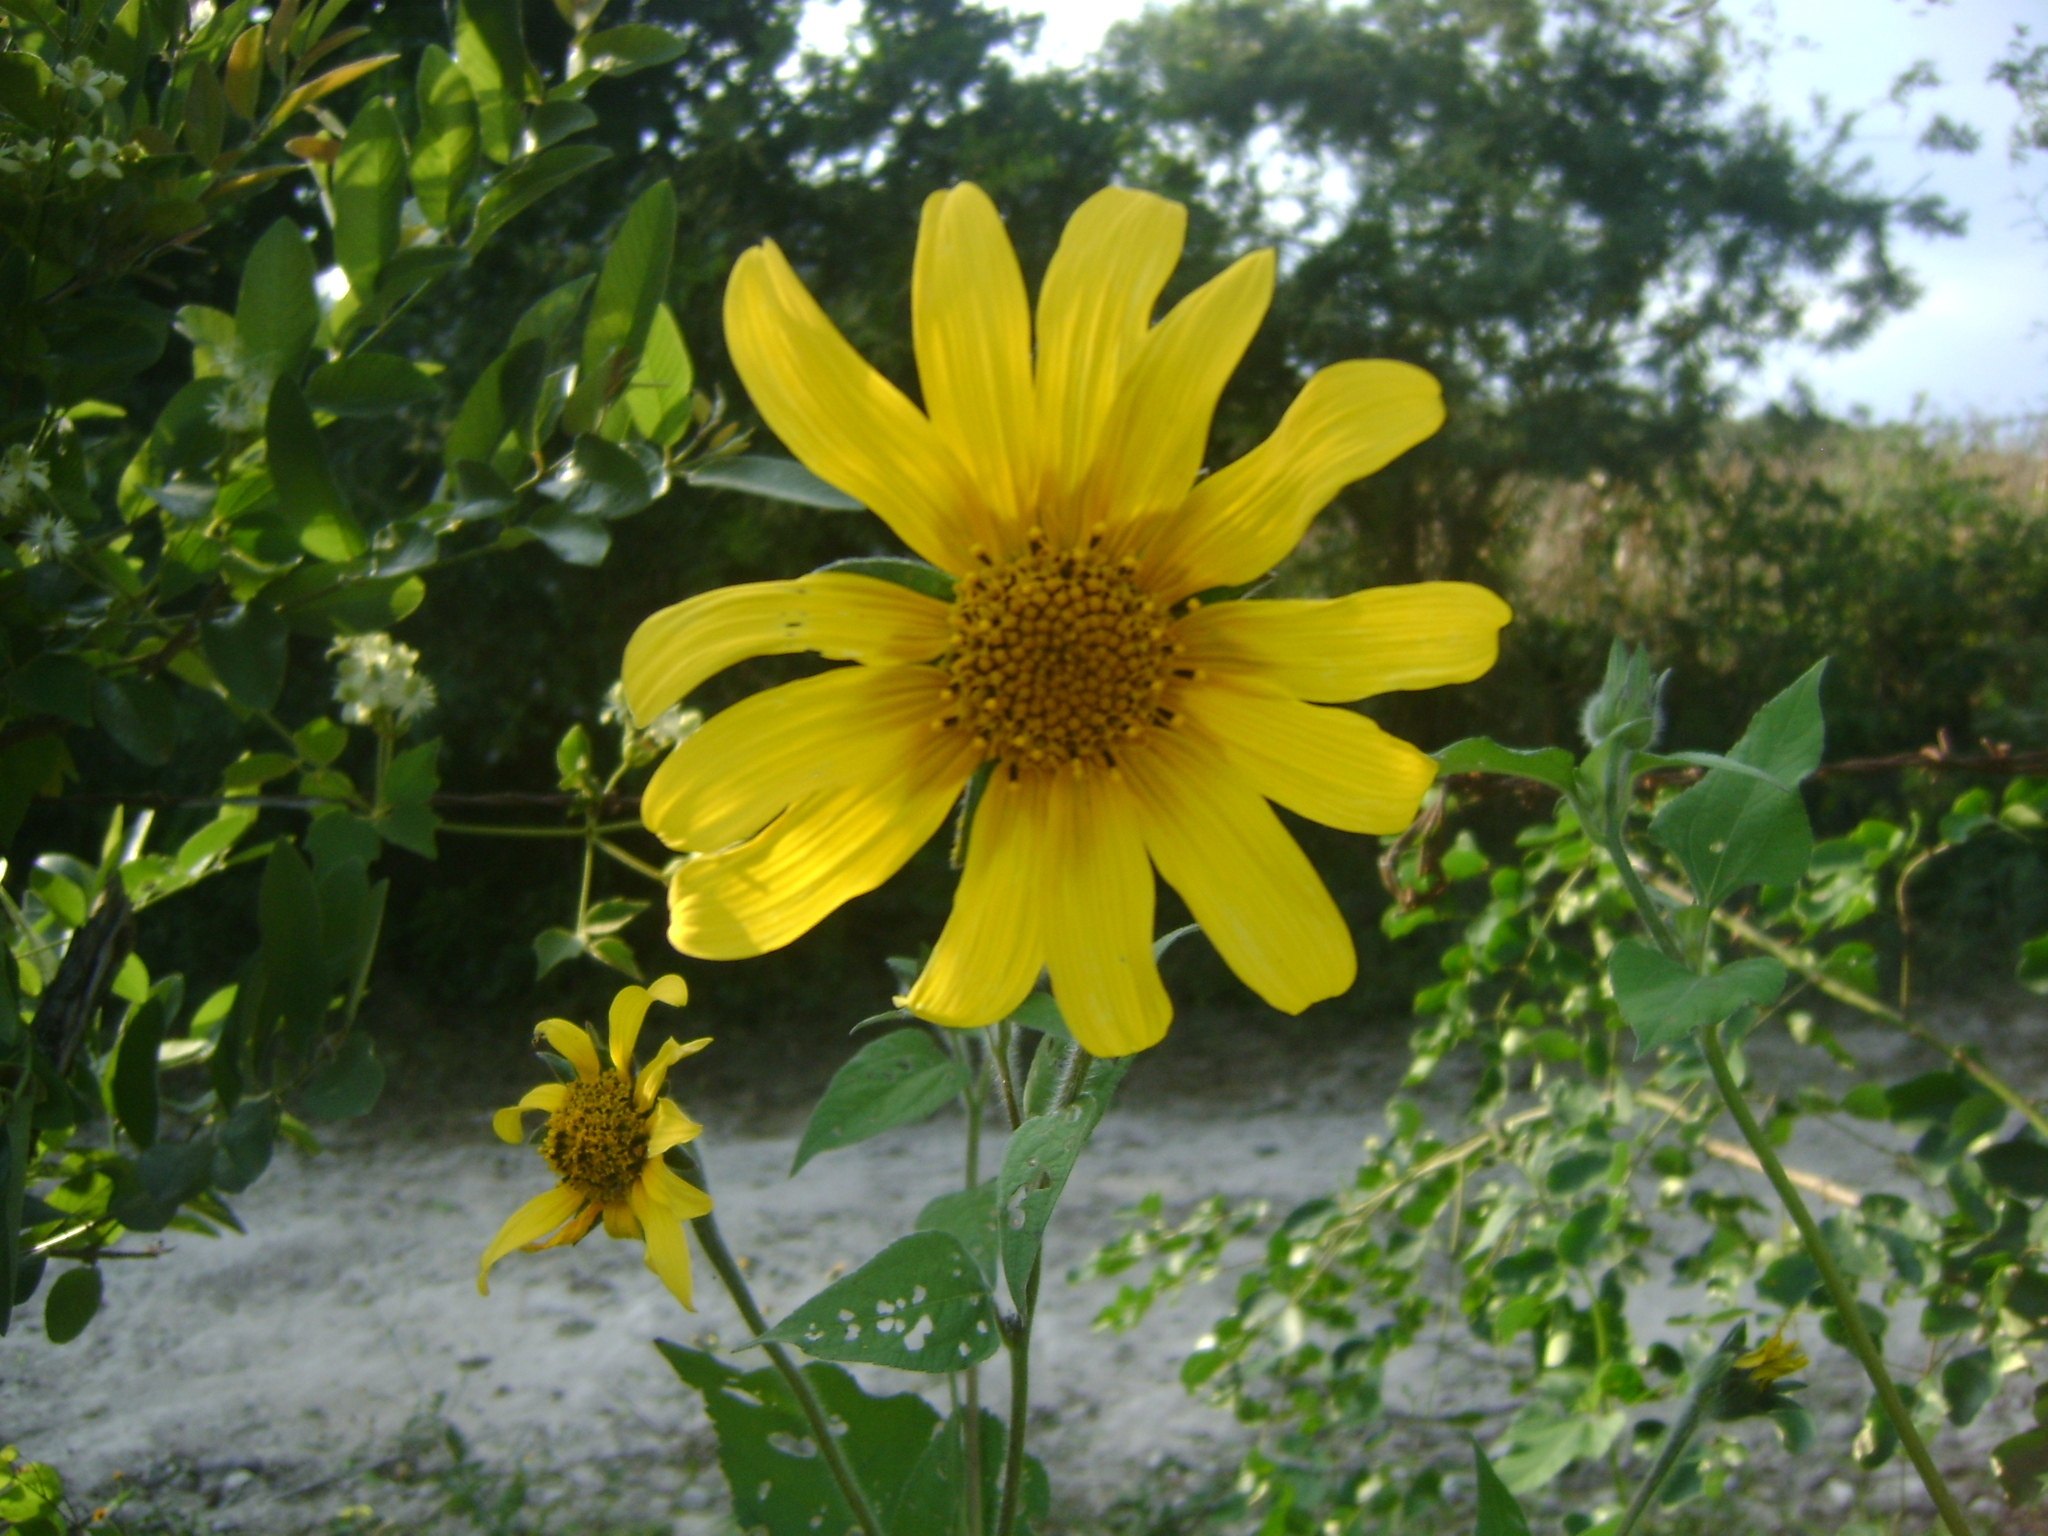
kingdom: Plantae
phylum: Tracheophyta
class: Magnoliopsida
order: Asterales
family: Asteraceae
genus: Tithonia
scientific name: Tithonia tubaeformis
